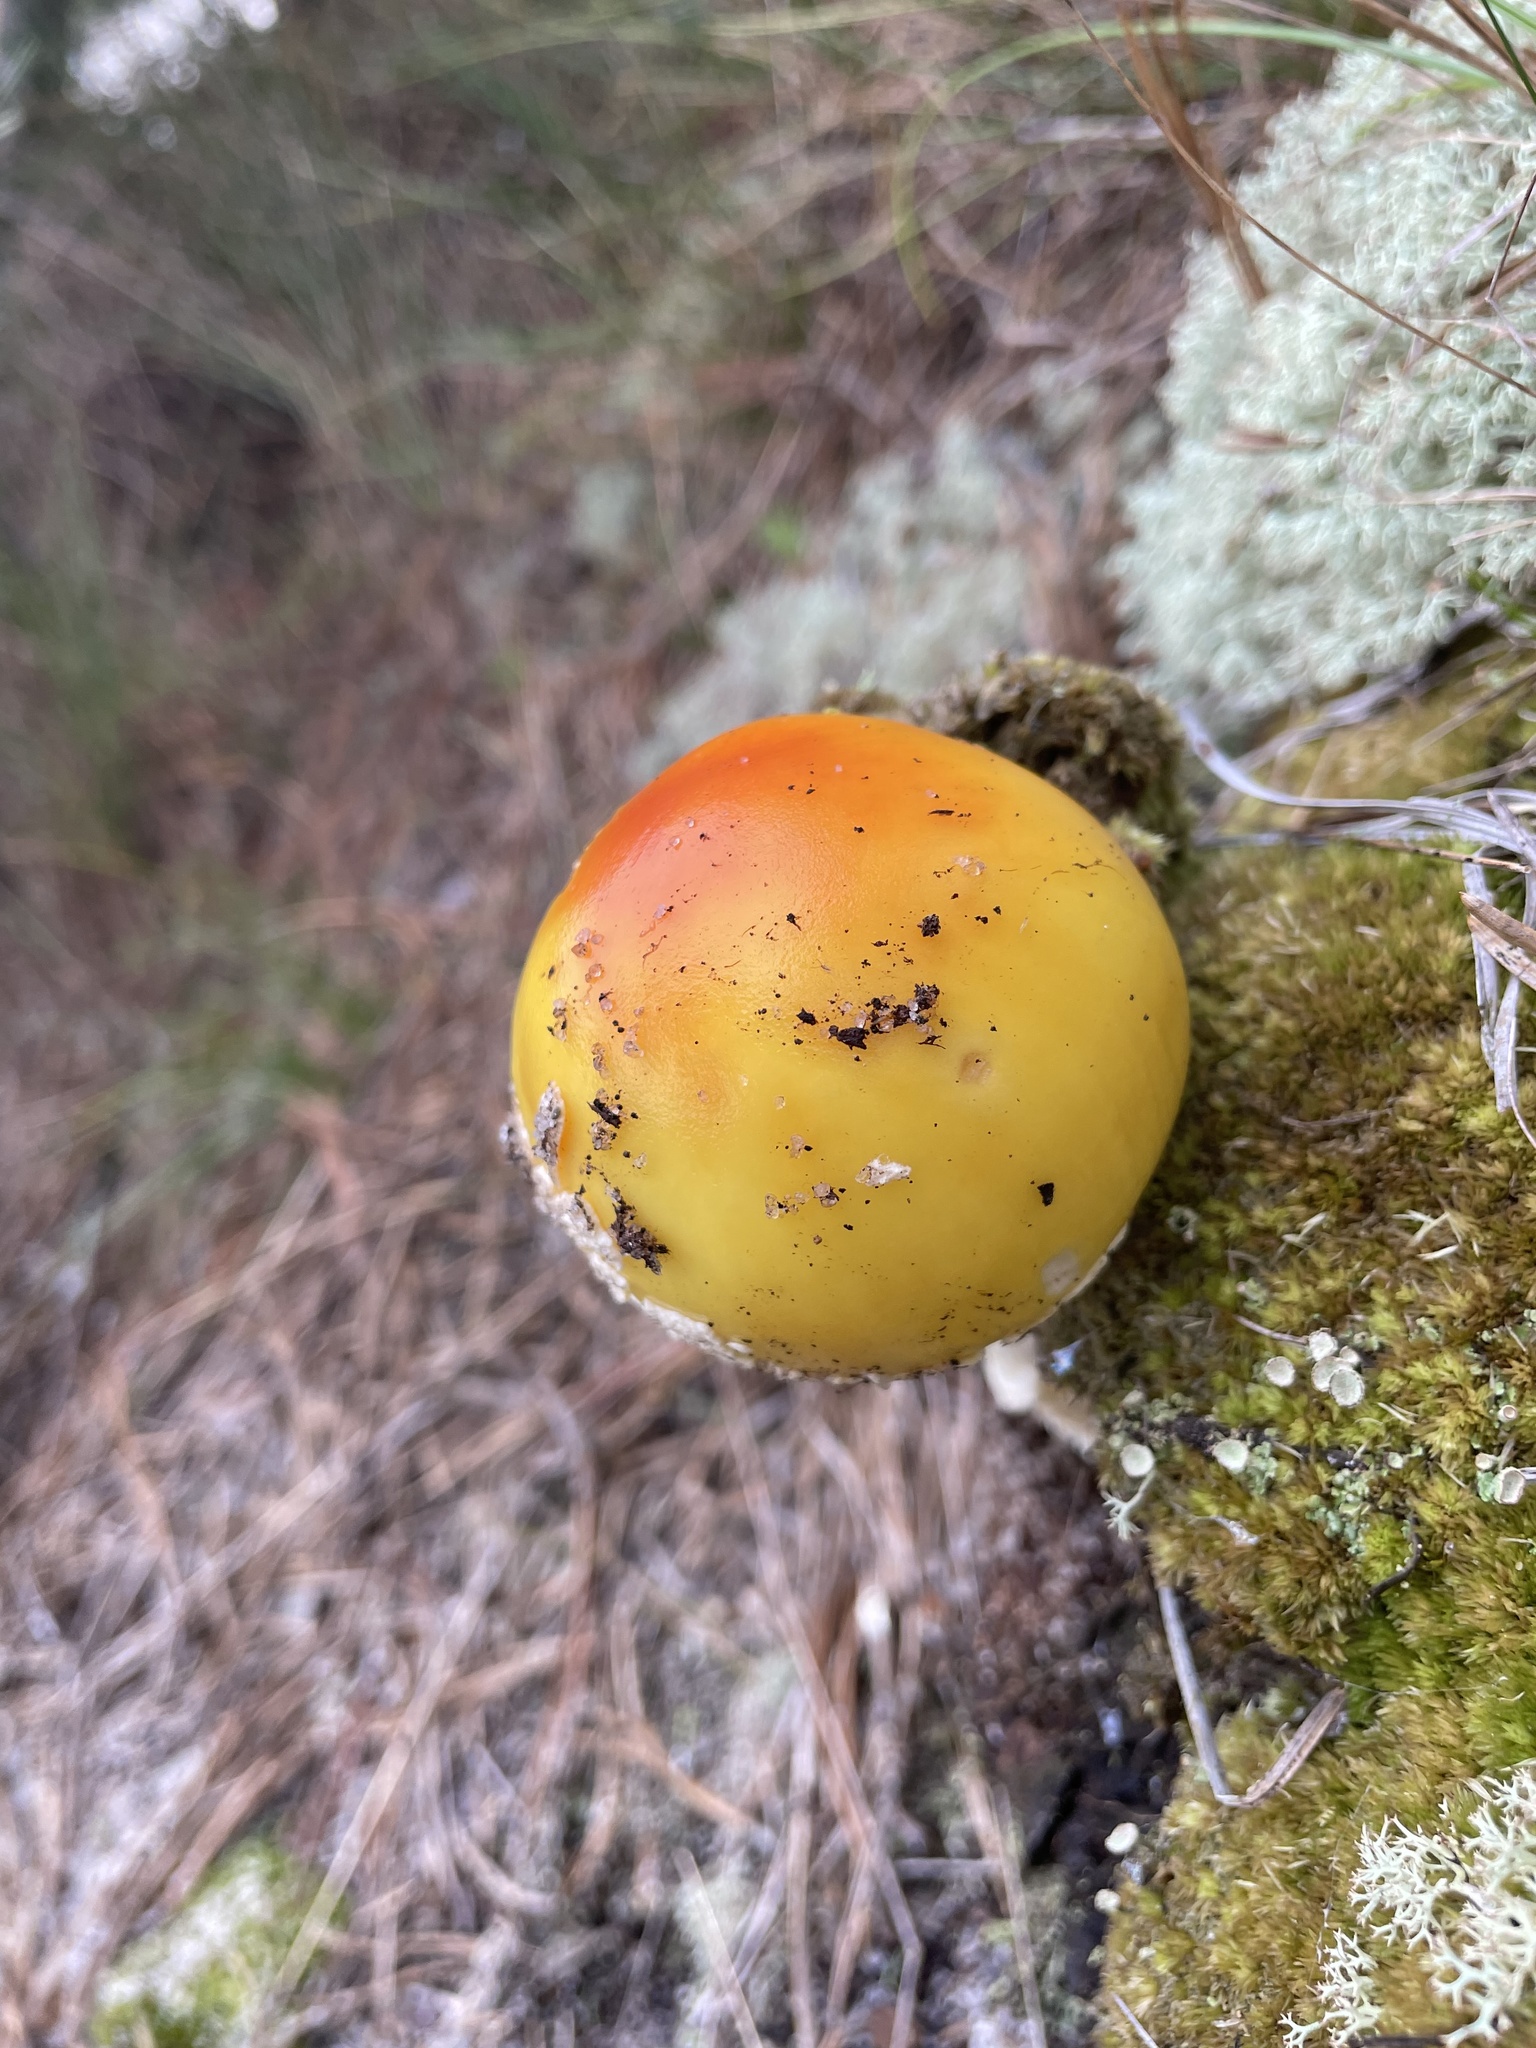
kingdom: Fungi
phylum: Basidiomycota
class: Agaricomycetes
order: Agaricales
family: Amanitaceae
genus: Amanita
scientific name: Amanita muscaria
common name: Fly agaric
